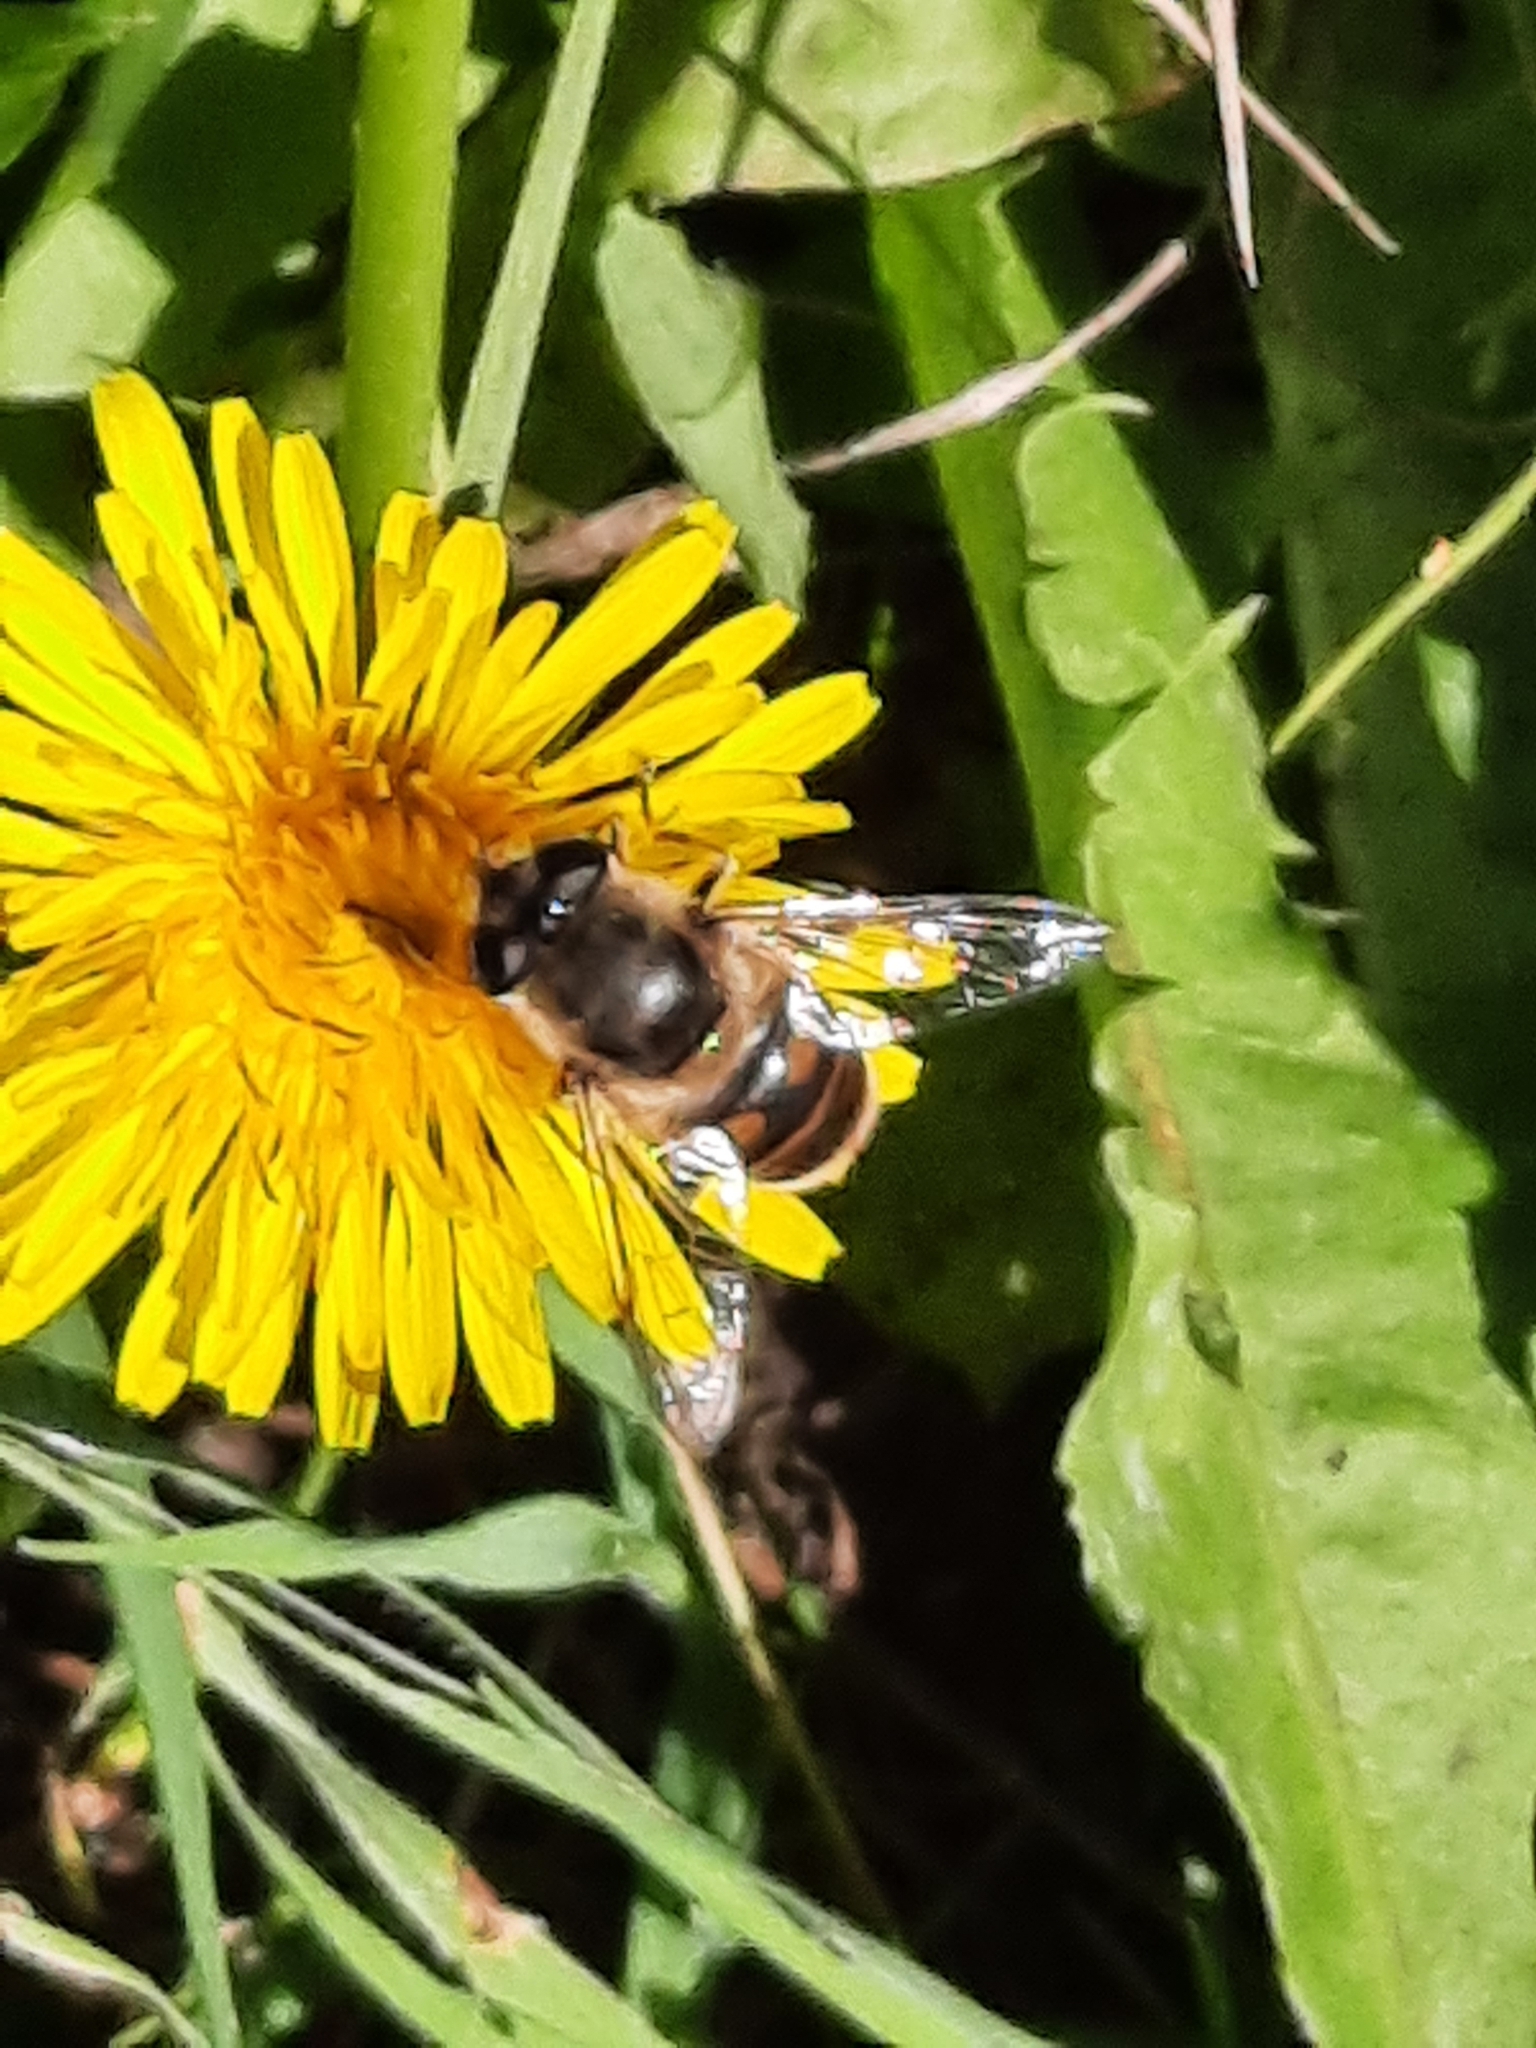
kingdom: Animalia
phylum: Arthropoda
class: Insecta
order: Diptera
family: Syrphidae
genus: Eristalis
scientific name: Eristalis tenax
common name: Drone fly
